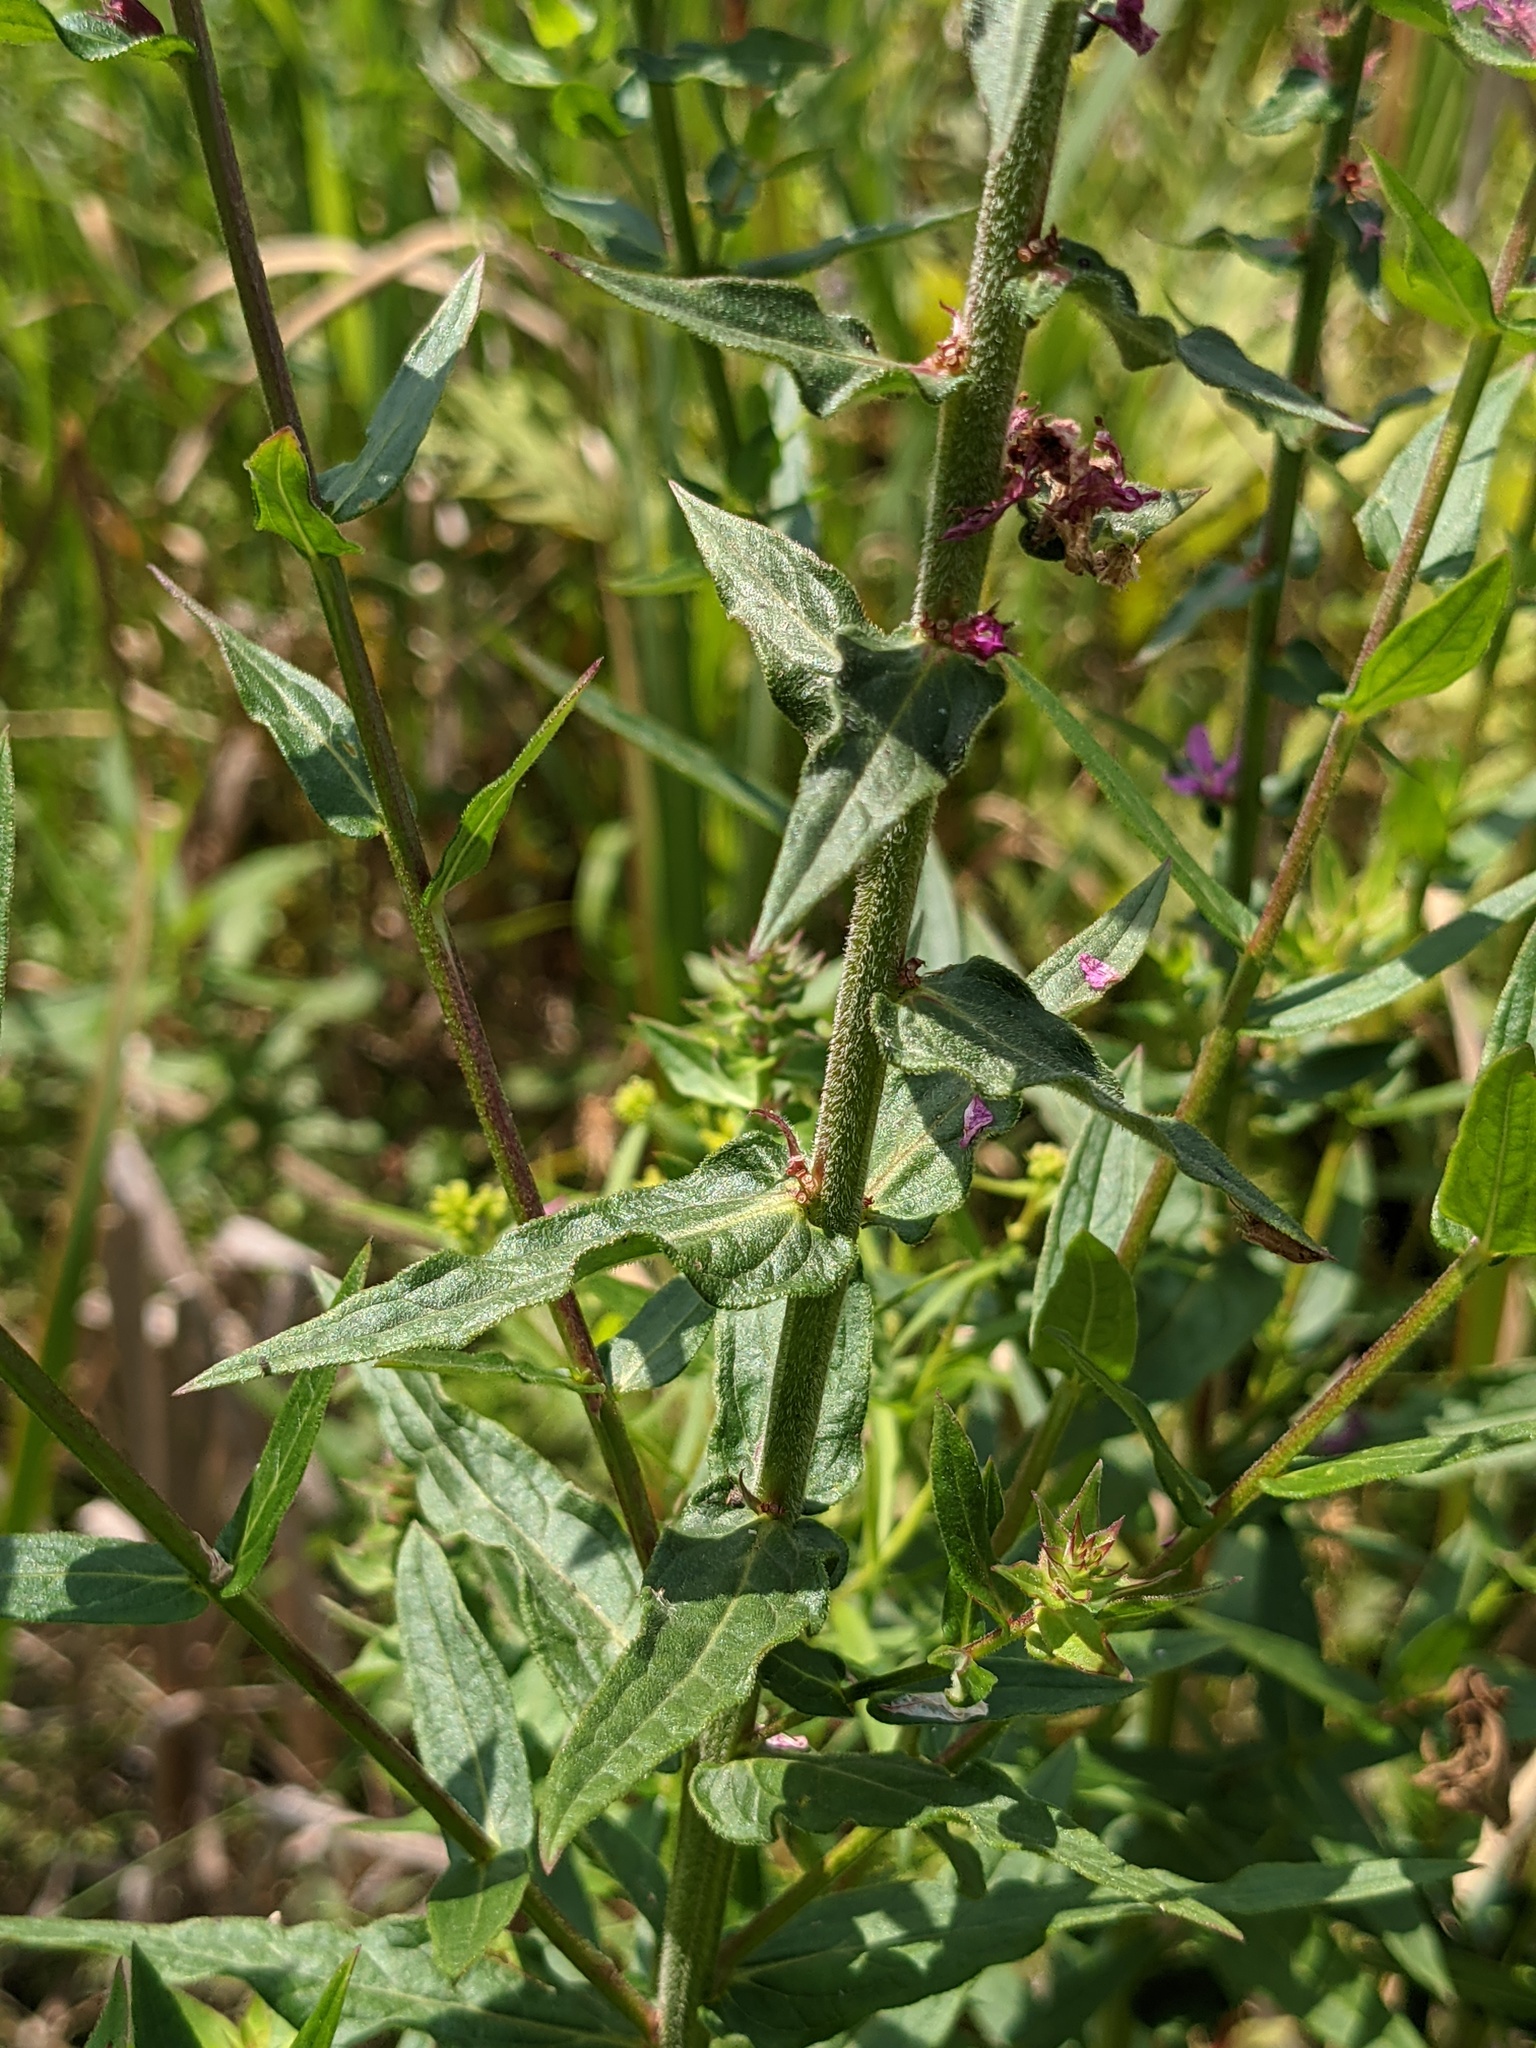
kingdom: Plantae
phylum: Tracheophyta
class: Magnoliopsida
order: Myrtales
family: Lythraceae
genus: Lythrum
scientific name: Lythrum salicaria
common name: Purple loosestrife
